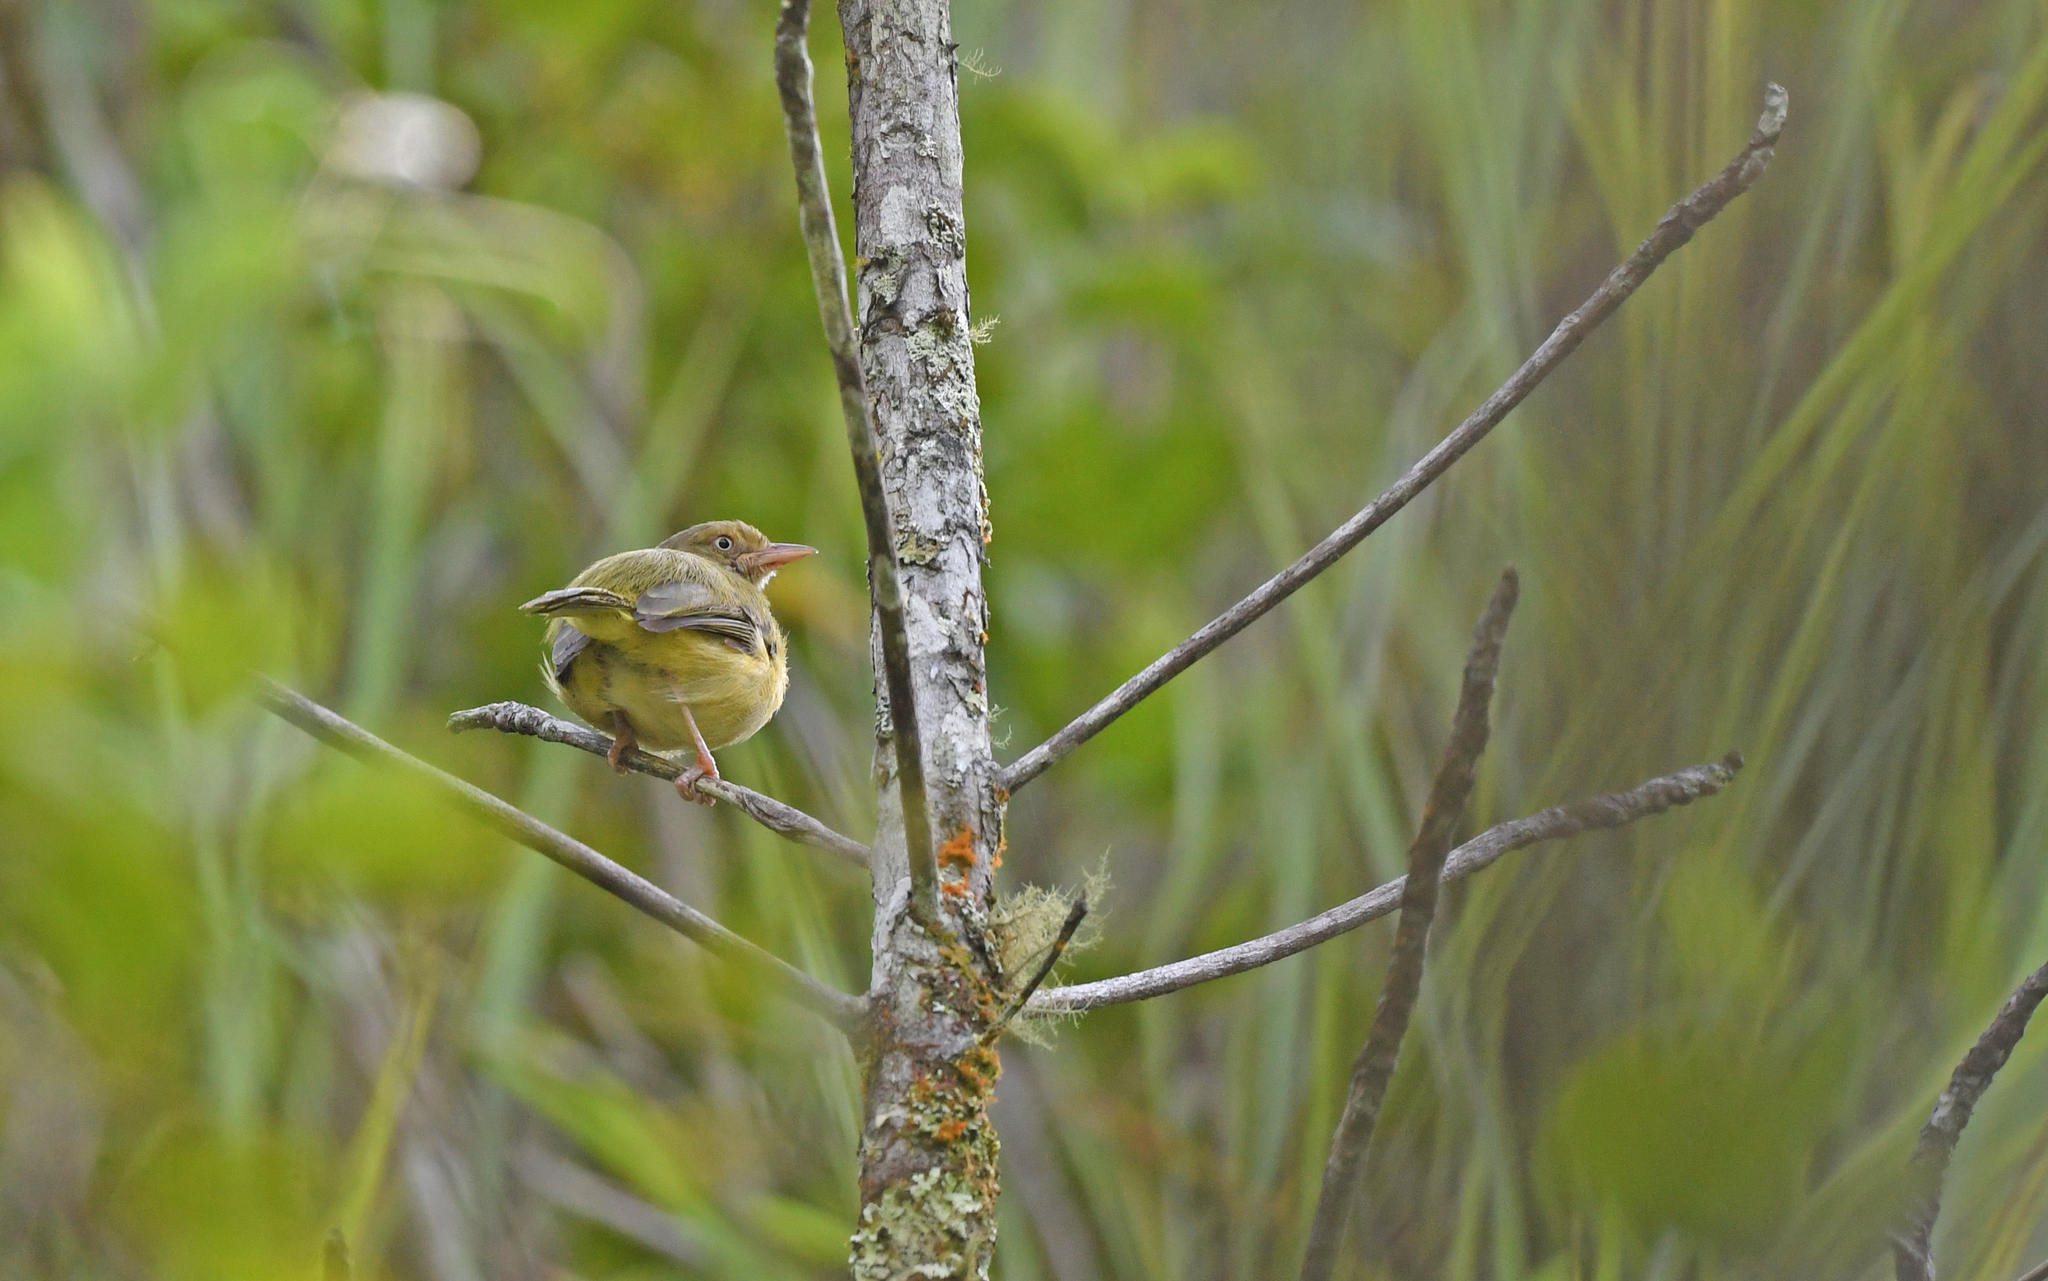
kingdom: Animalia
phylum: Chordata
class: Aves
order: Passeriformes
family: Vireonidae
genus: Hylophilus
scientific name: Hylophilus flavipes
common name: Scrub greenlet
